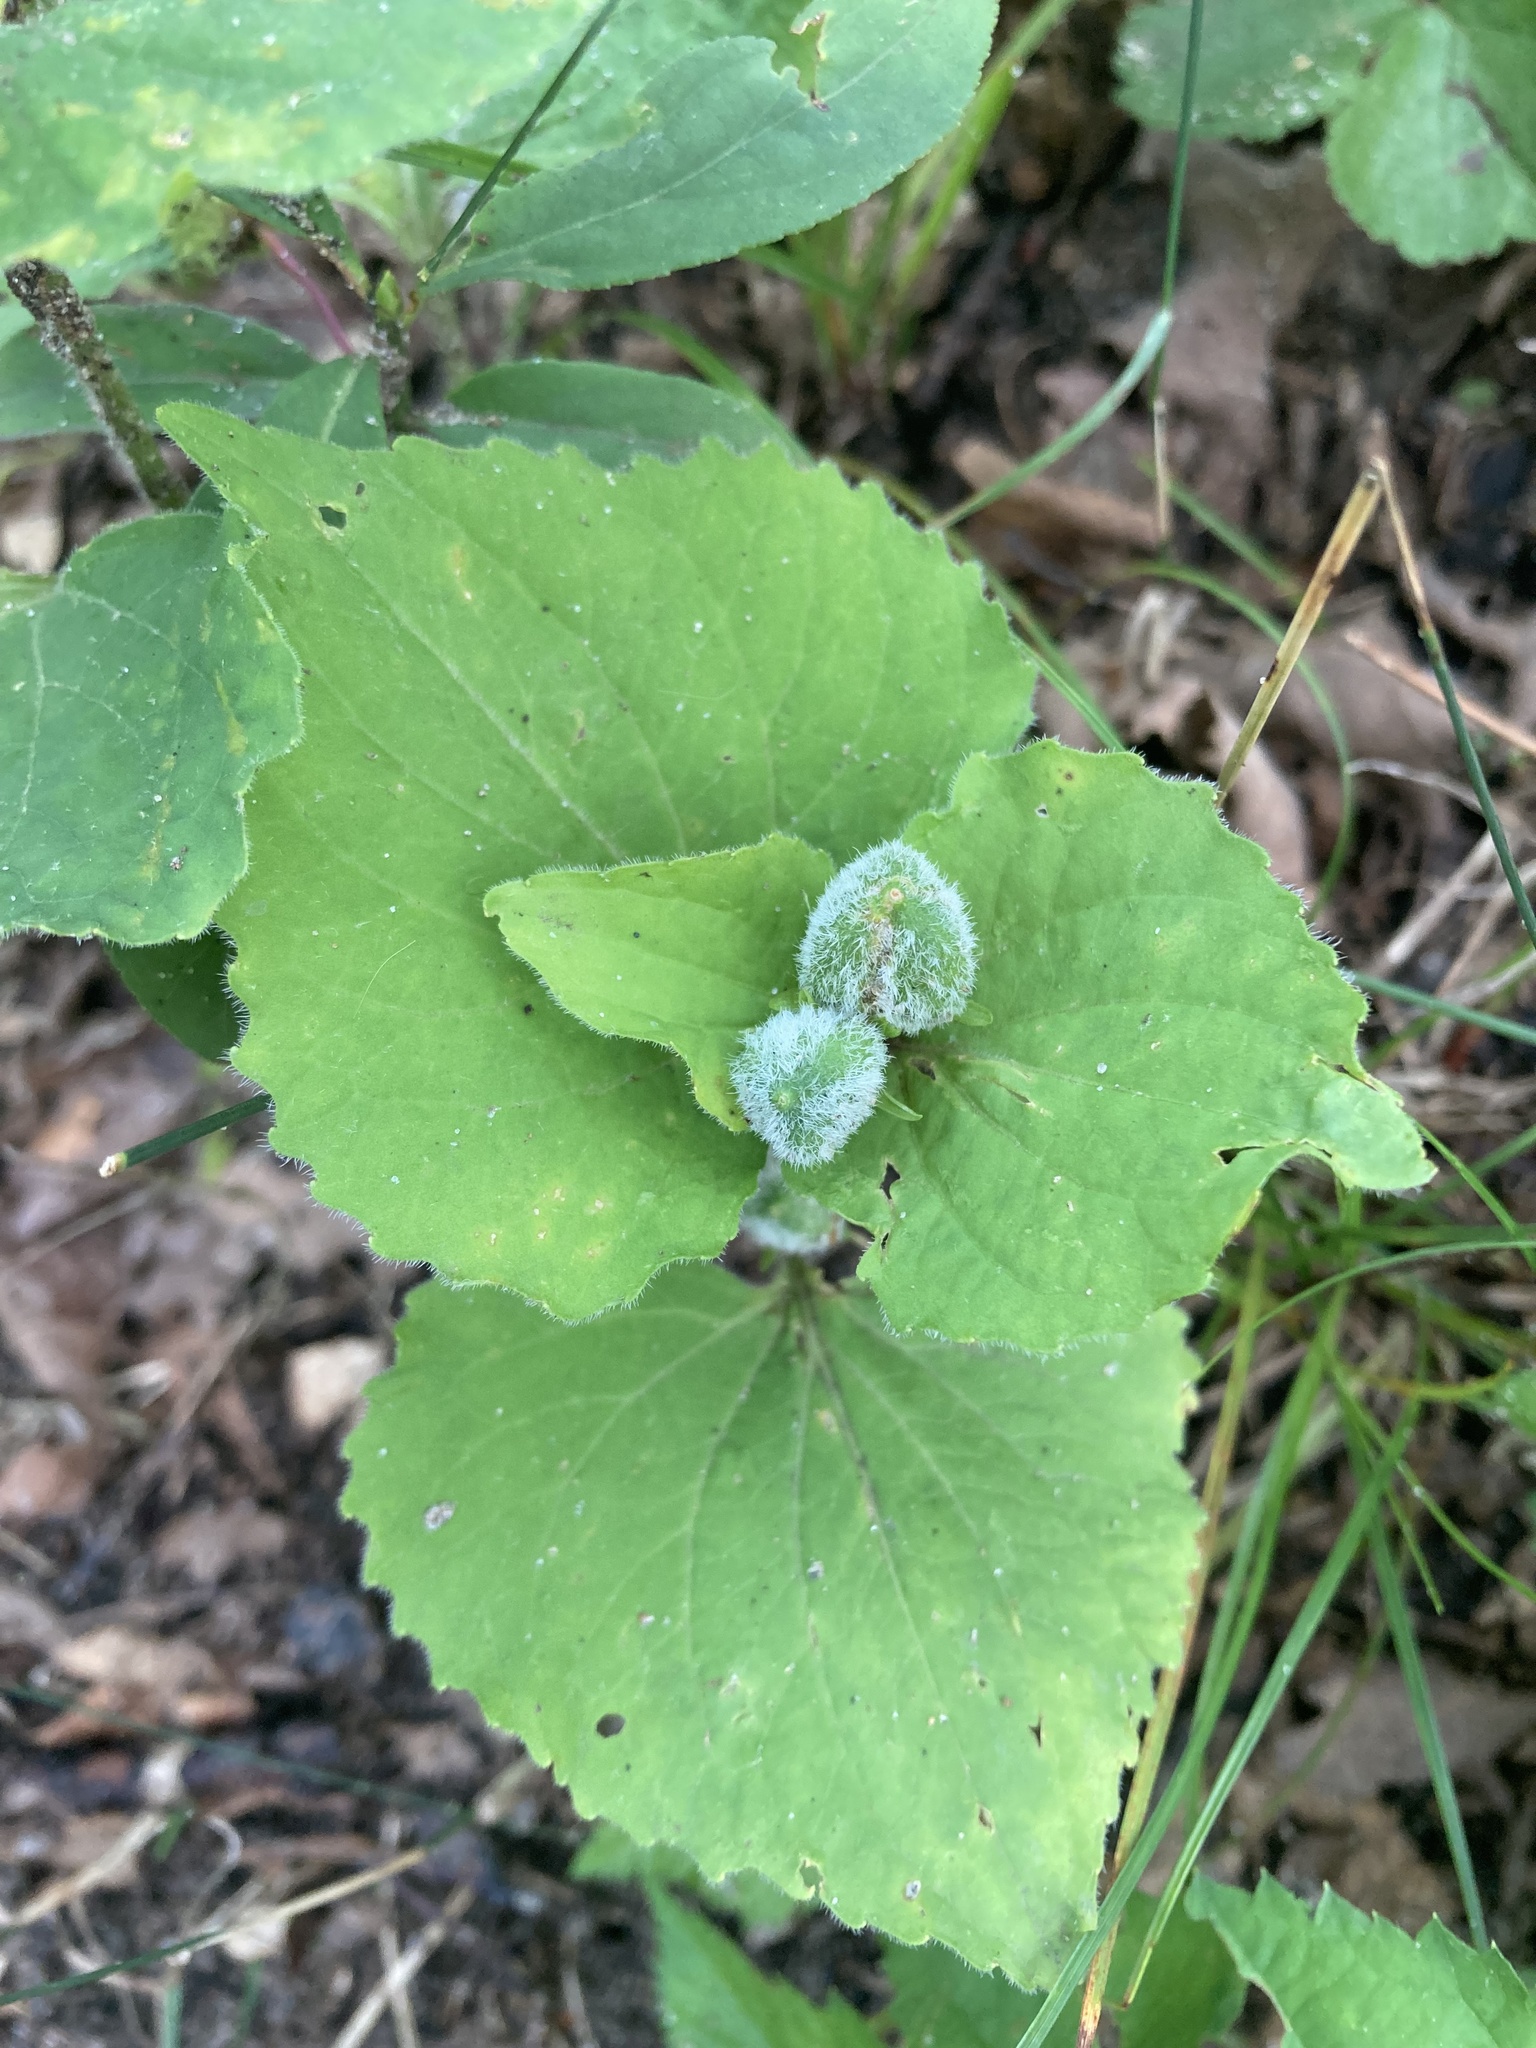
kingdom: Plantae
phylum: Tracheophyta
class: Magnoliopsida
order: Malpighiales
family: Violaceae
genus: Viola
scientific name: Viola eriocarpa
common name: Smooth yellow violet
